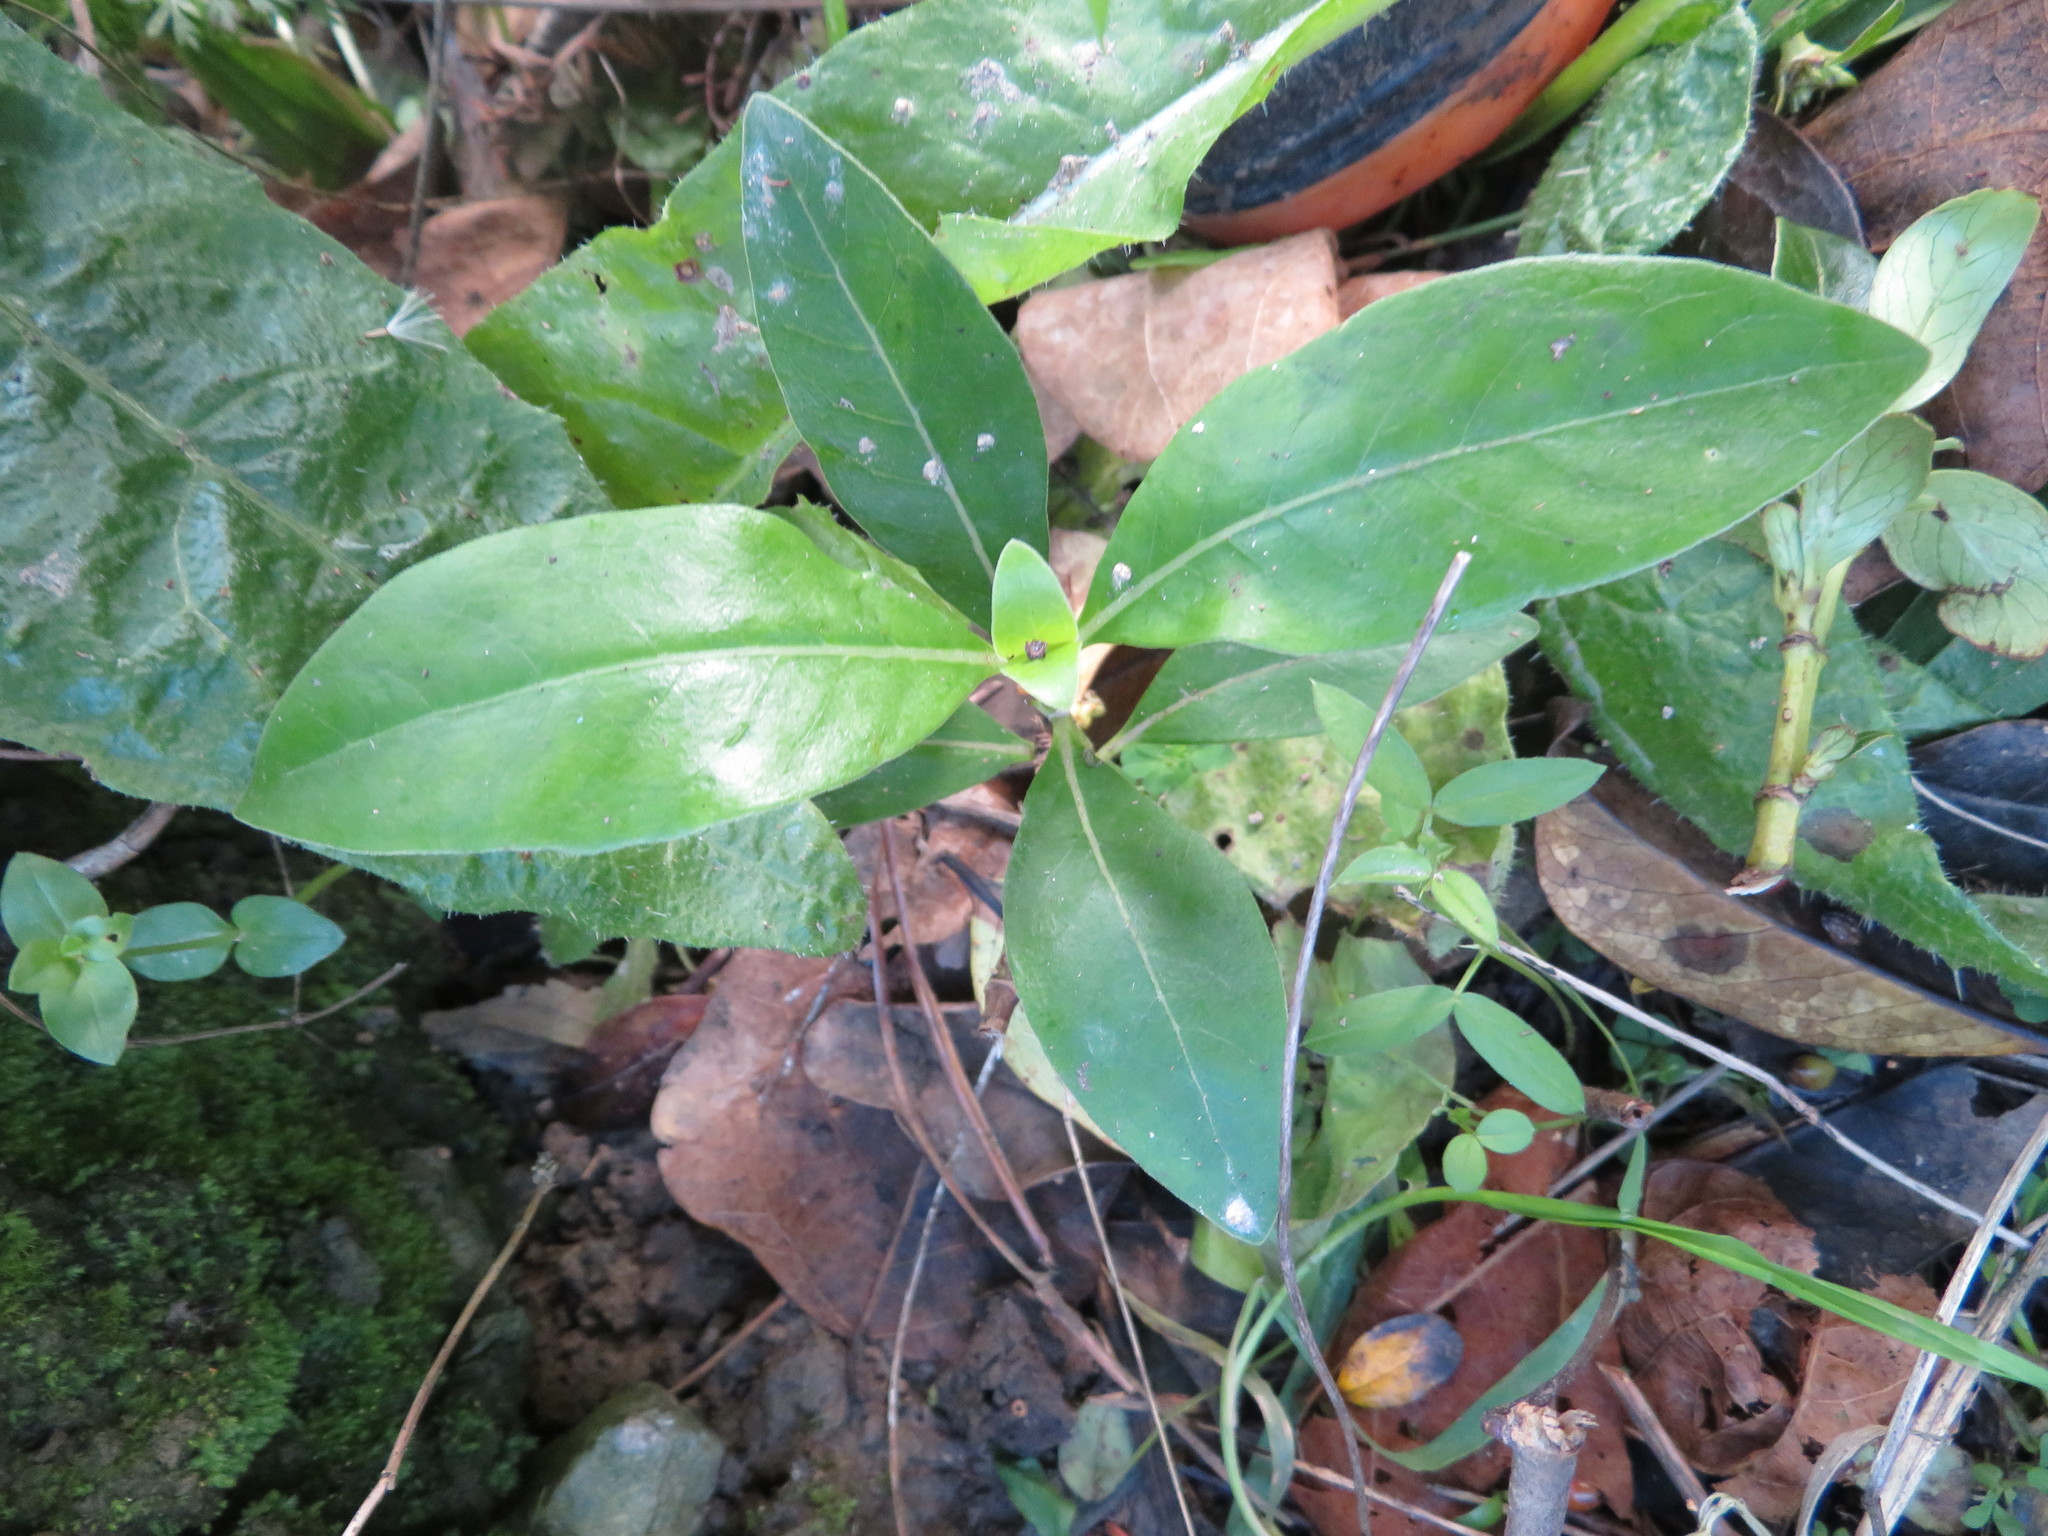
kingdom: Plantae
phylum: Tracheophyta
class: Magnoliopsida
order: Gentianales
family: Rubiaceae
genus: Coprosma
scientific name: Coprosma robusta
